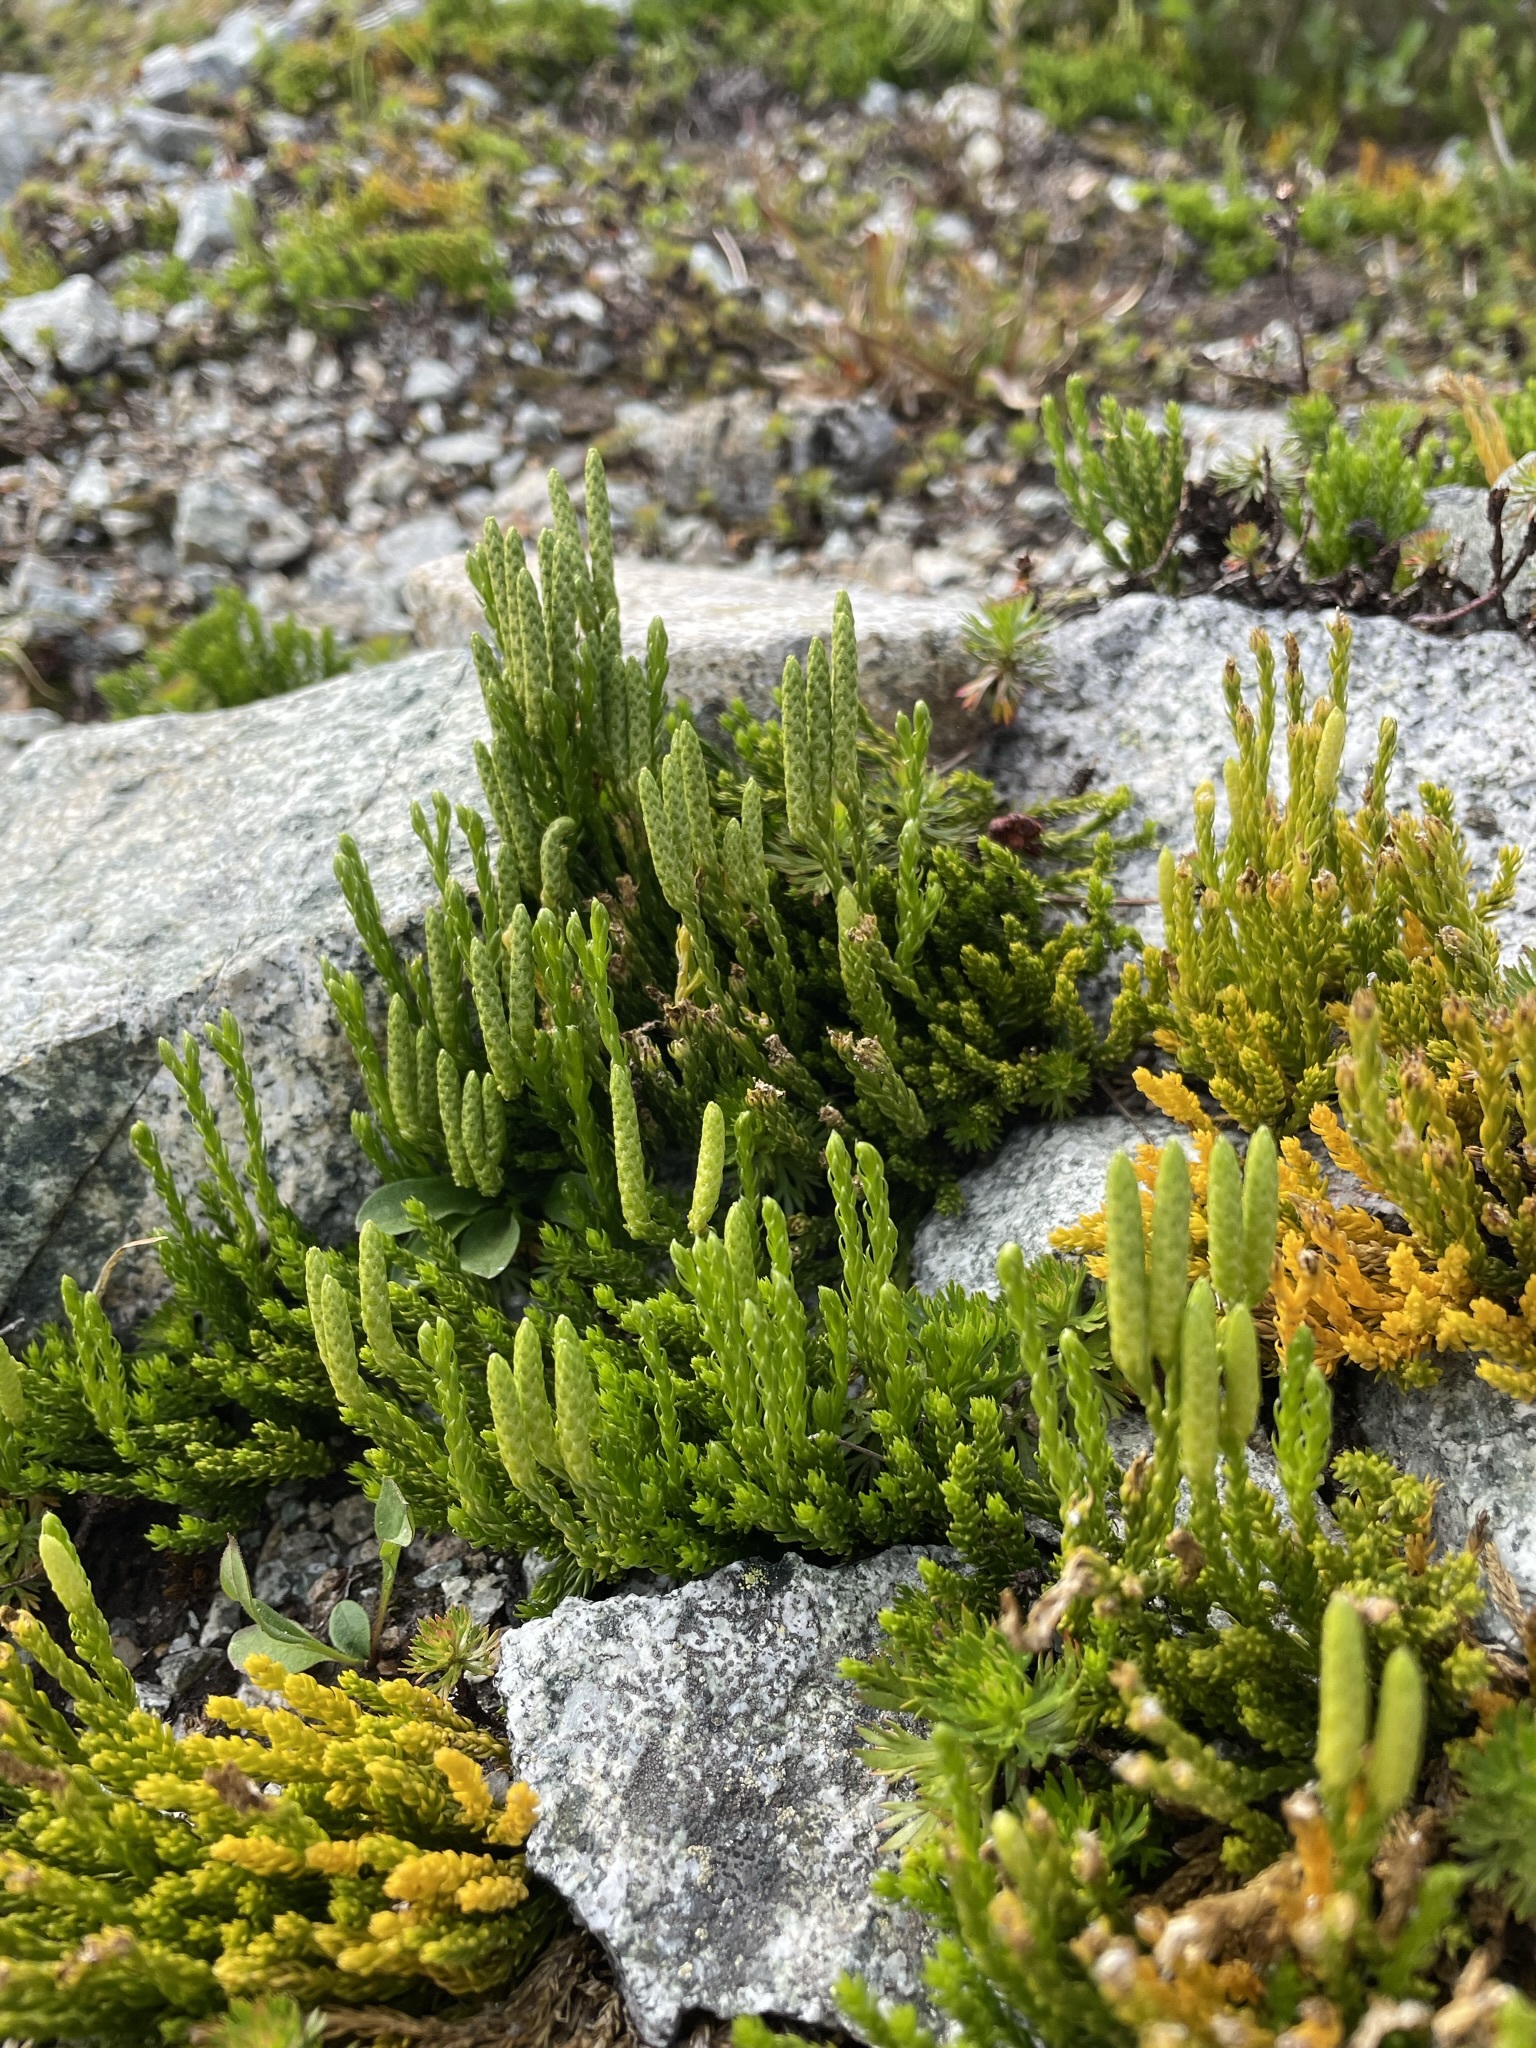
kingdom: Plantae
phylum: Tracheophyta
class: Lycopodiopsida
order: Lycopodiales
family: Lycopodiaceae
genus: Diphasiastrum
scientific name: Diphasiastrum sitchense
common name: Alaska clubmoss
